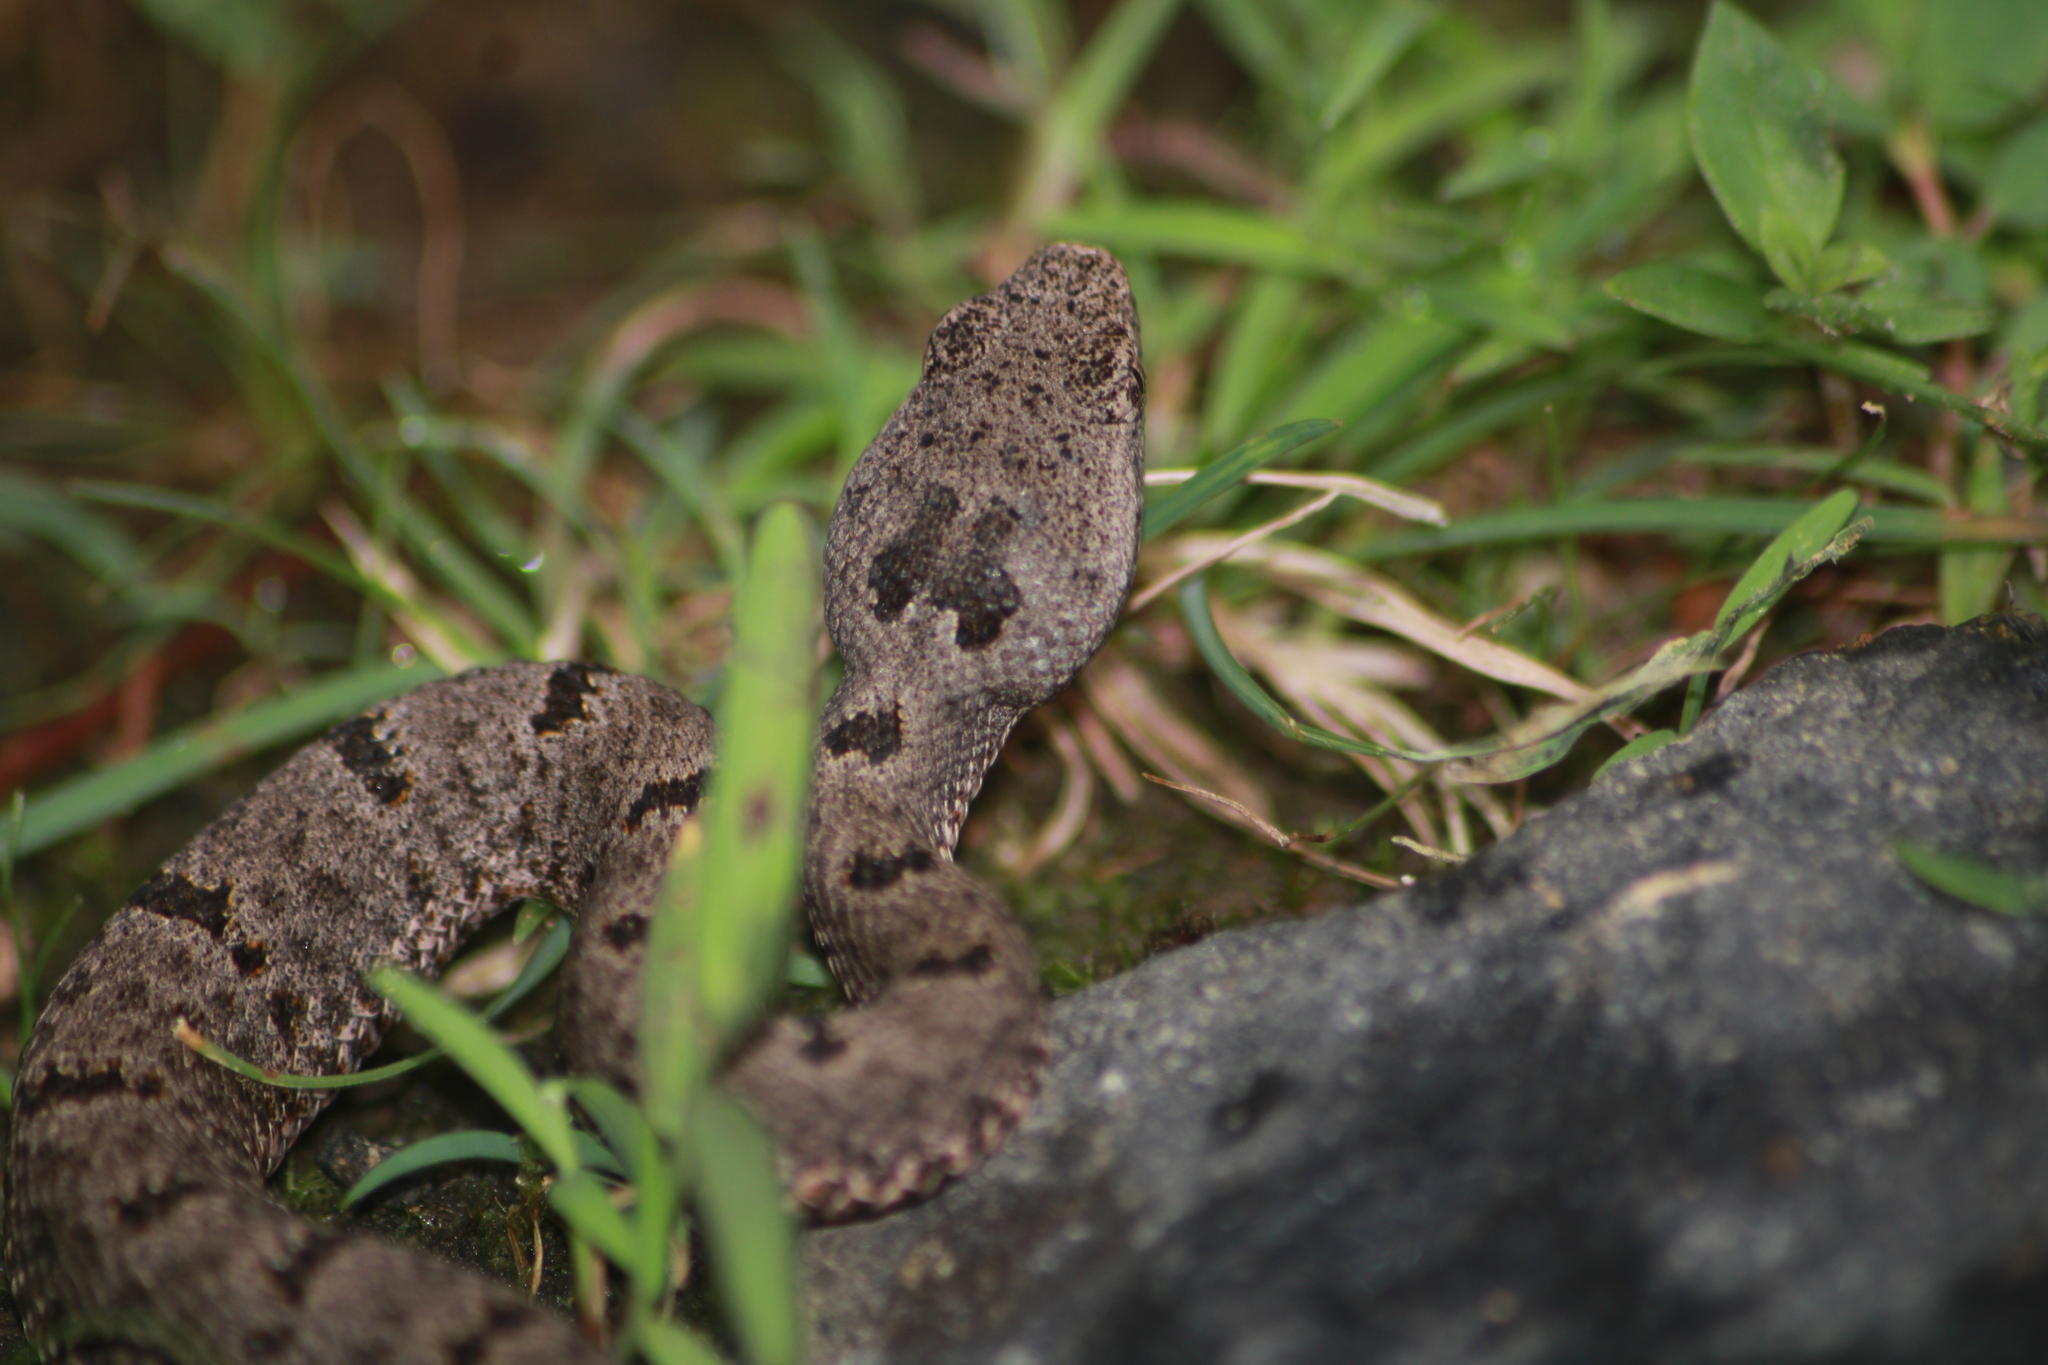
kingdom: Animalia
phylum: Chordata
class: Squamata
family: Viperidae
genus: Crotalus
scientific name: Crotalus lepidus
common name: Rock rattlesnake
